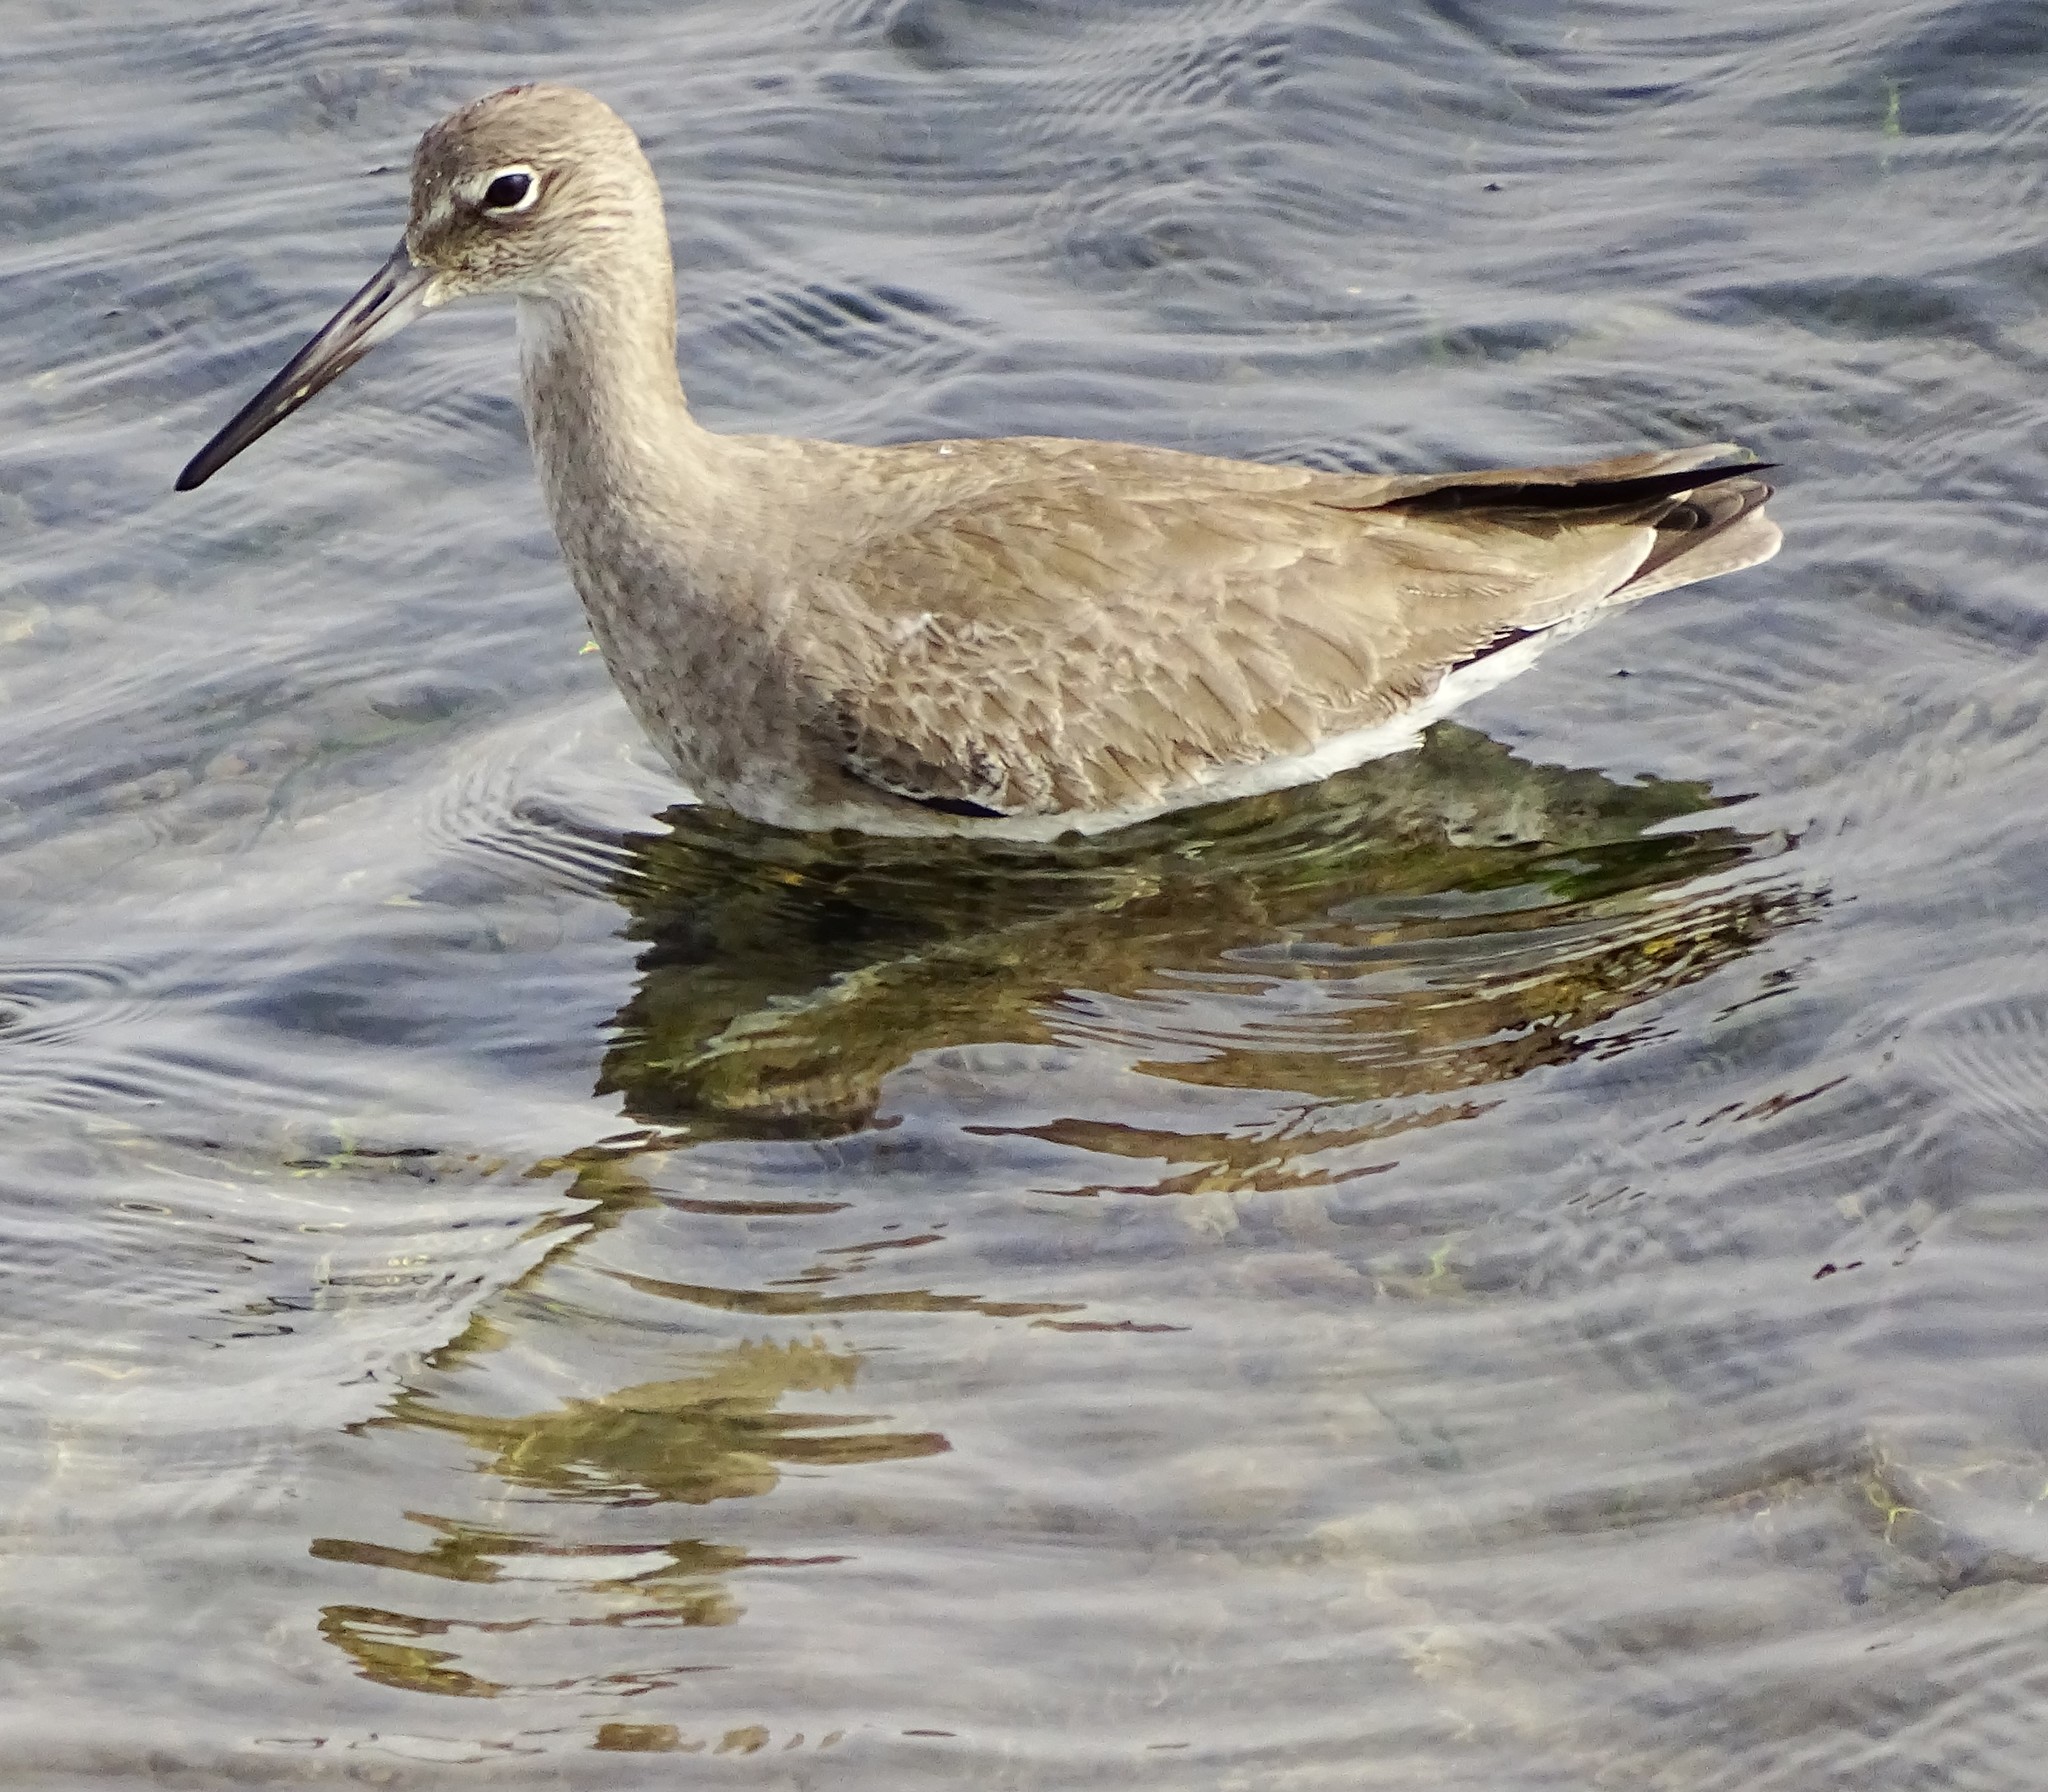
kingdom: Animalia
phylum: Chordata
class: Aves
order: Charadriiformes
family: Scolopacidae
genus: Tringa
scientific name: Tringa semipalmata
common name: Willet
